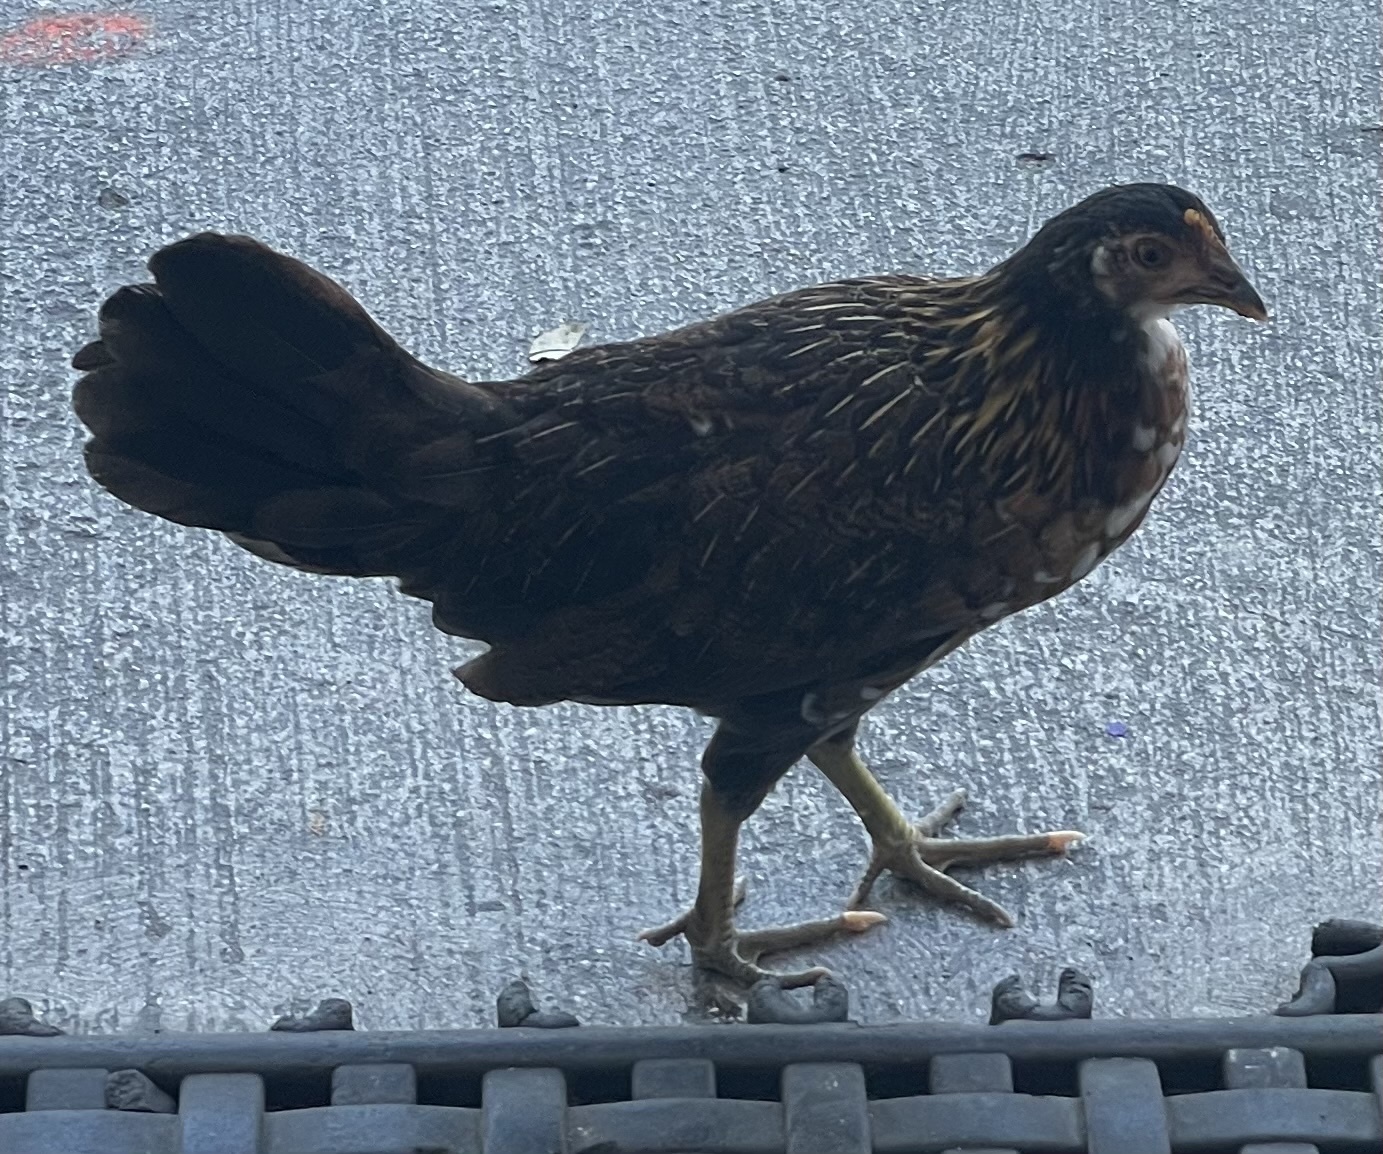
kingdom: Animalia
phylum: Chordata
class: Aves
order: Galliformes
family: Phasianidae
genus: Gallus
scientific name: Gallus gallus
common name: Red junglefowl
